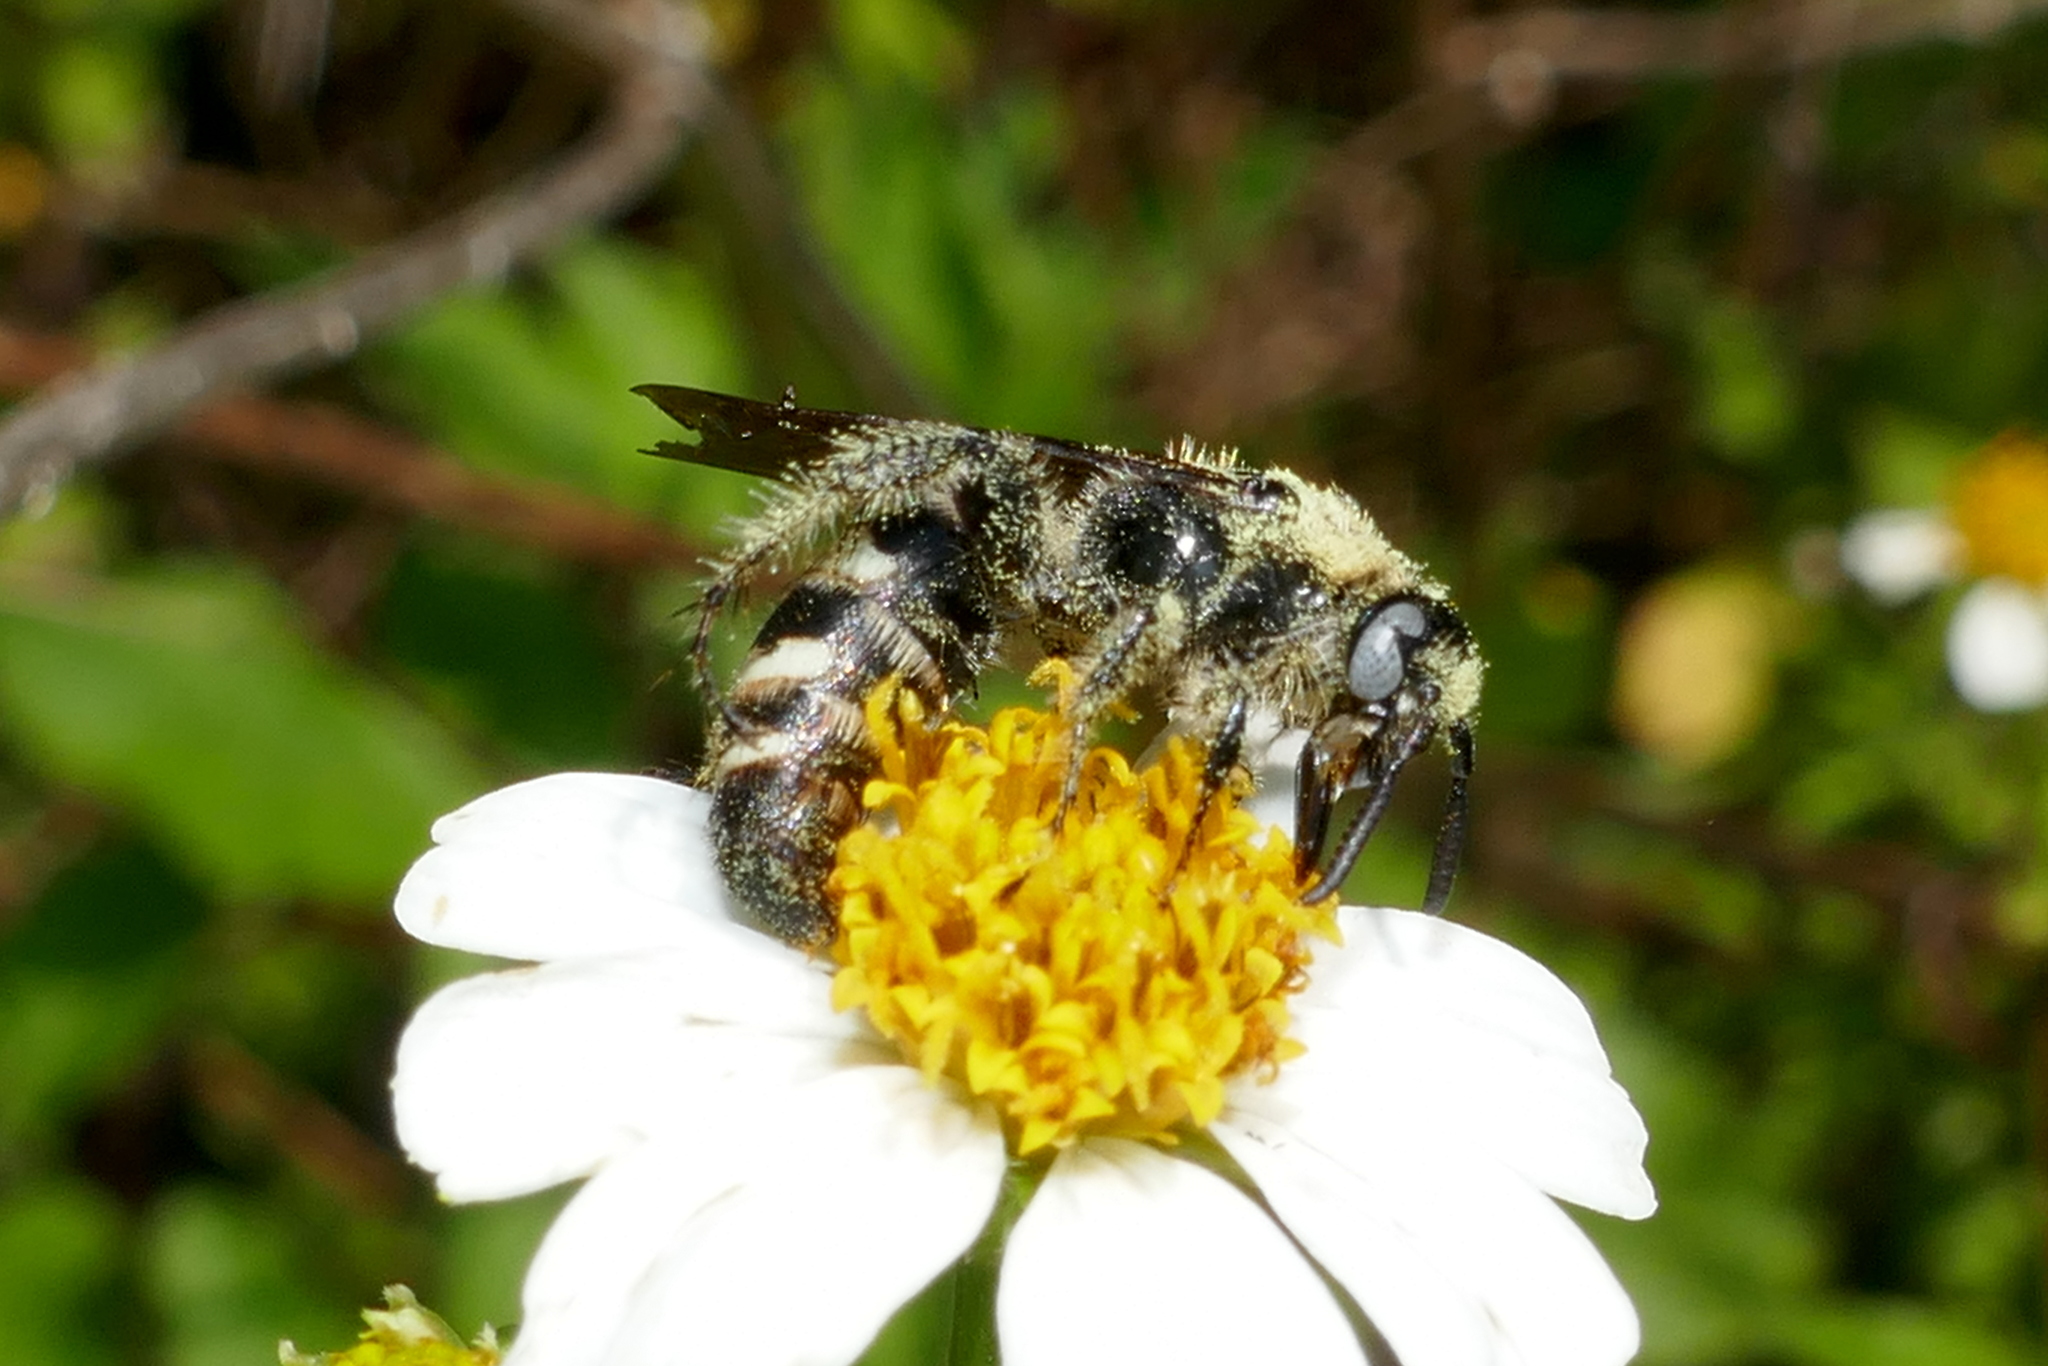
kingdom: Animalia
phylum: Arthropoda
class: Insecta
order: Hymenoptera
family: Scoliidae
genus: Dielis
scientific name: Dielis
